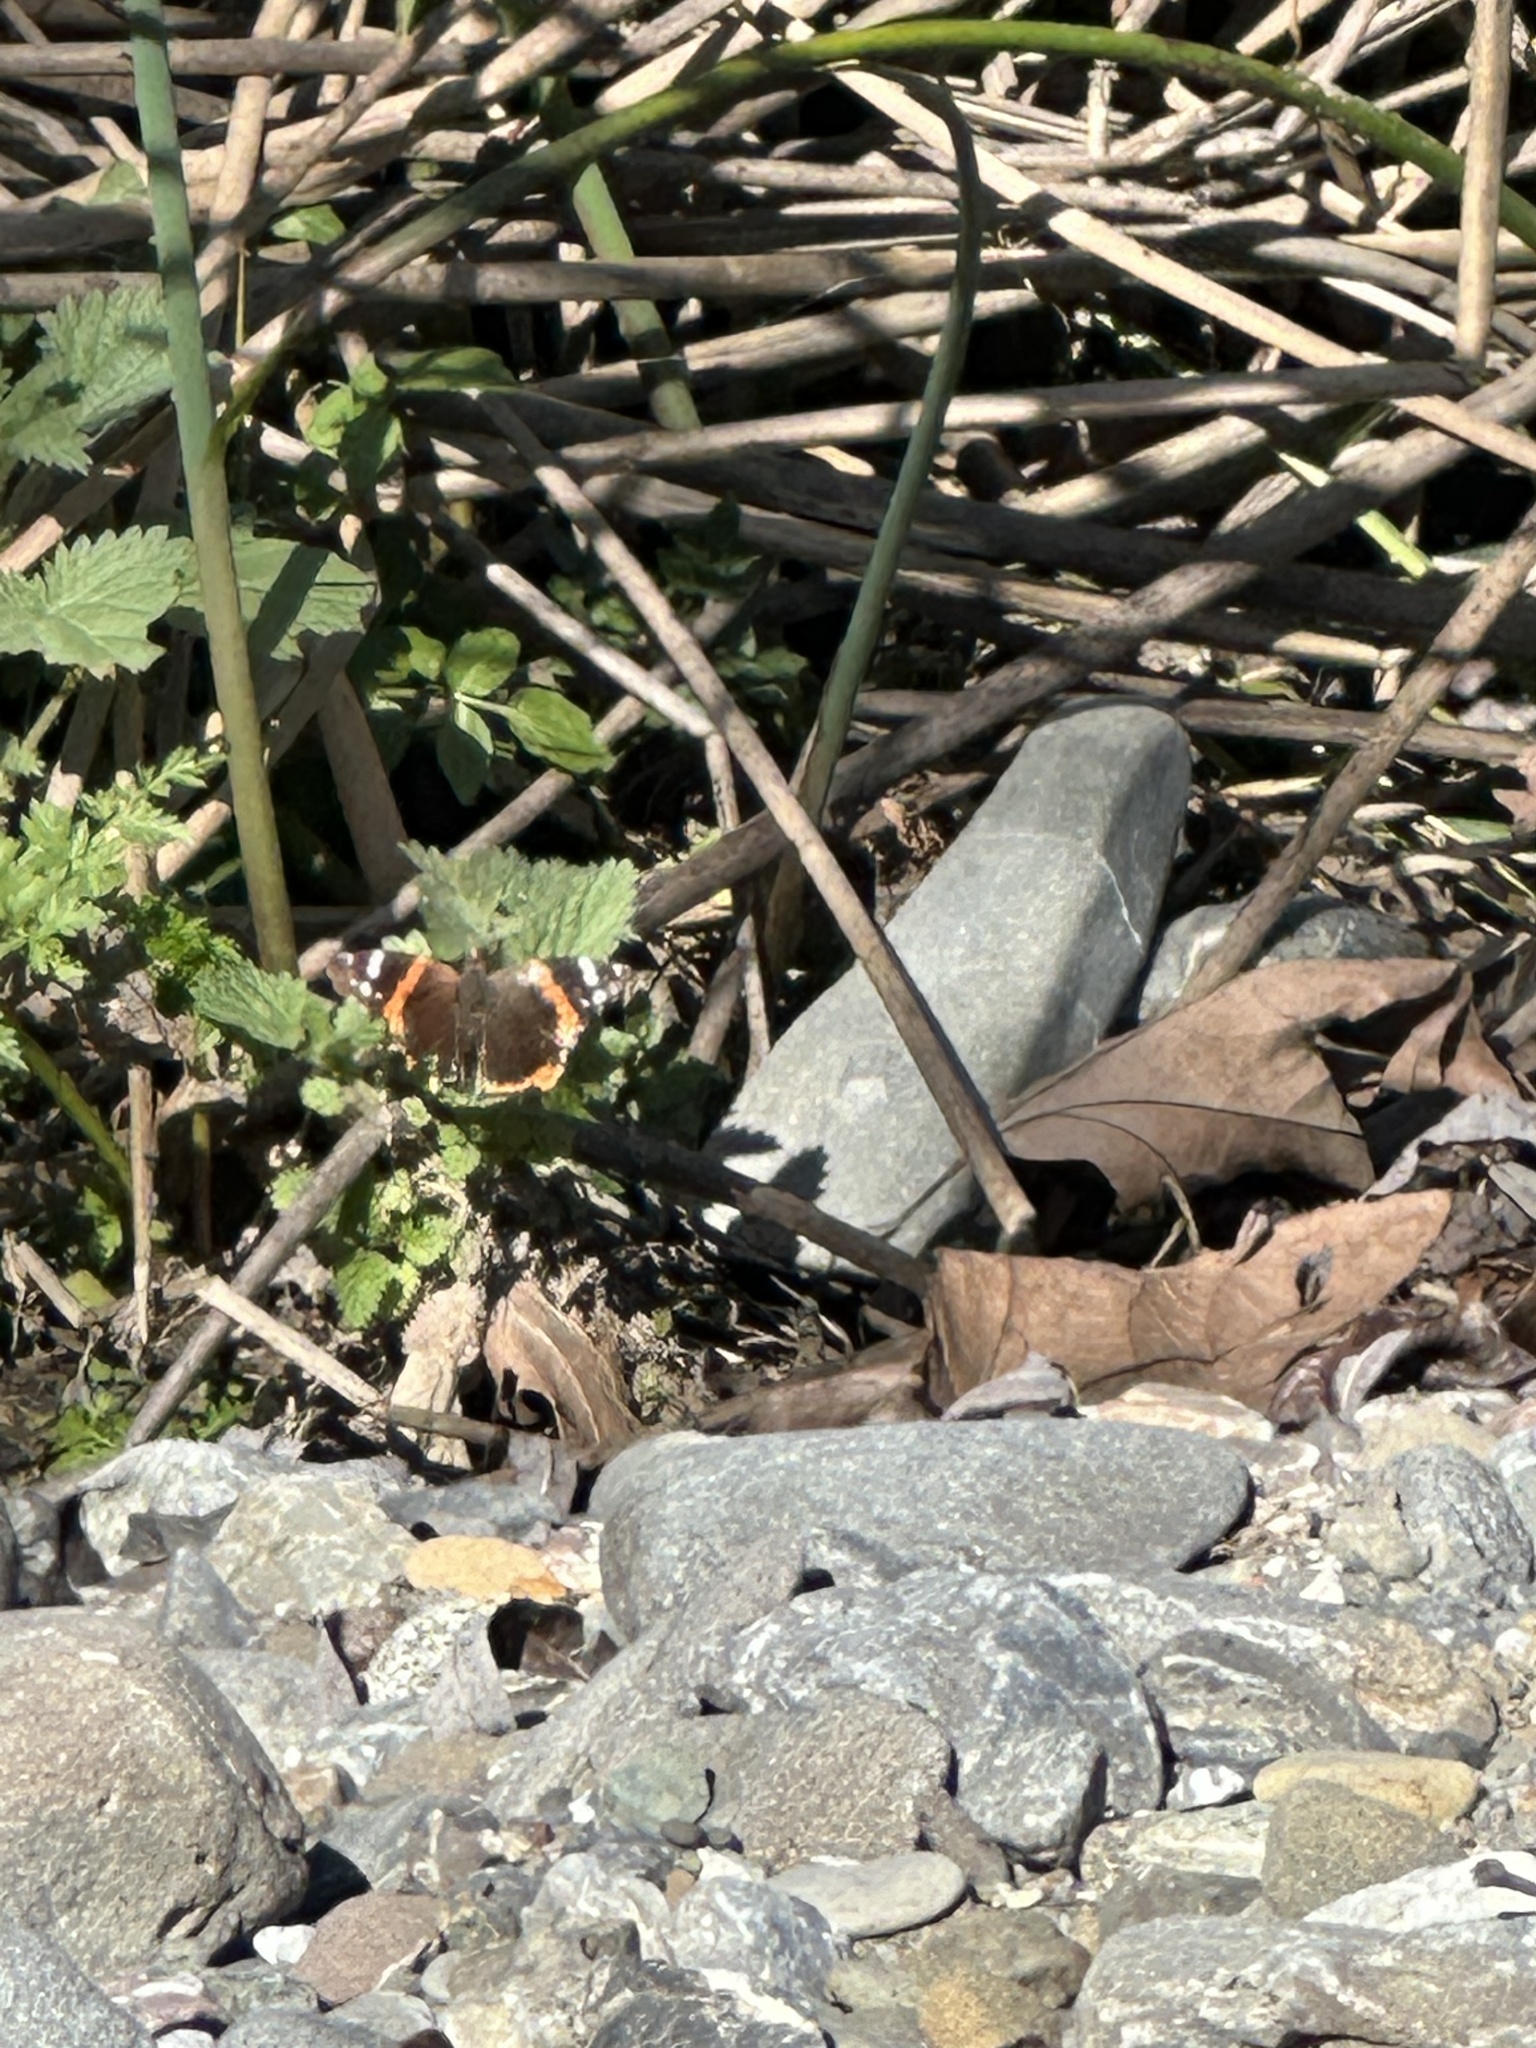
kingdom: Animalia
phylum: Arthropoda
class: Insecta
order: Lepidoptera
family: Nymphalidae
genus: Vanessa
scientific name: Vanessa atalanta
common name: Red admiral
